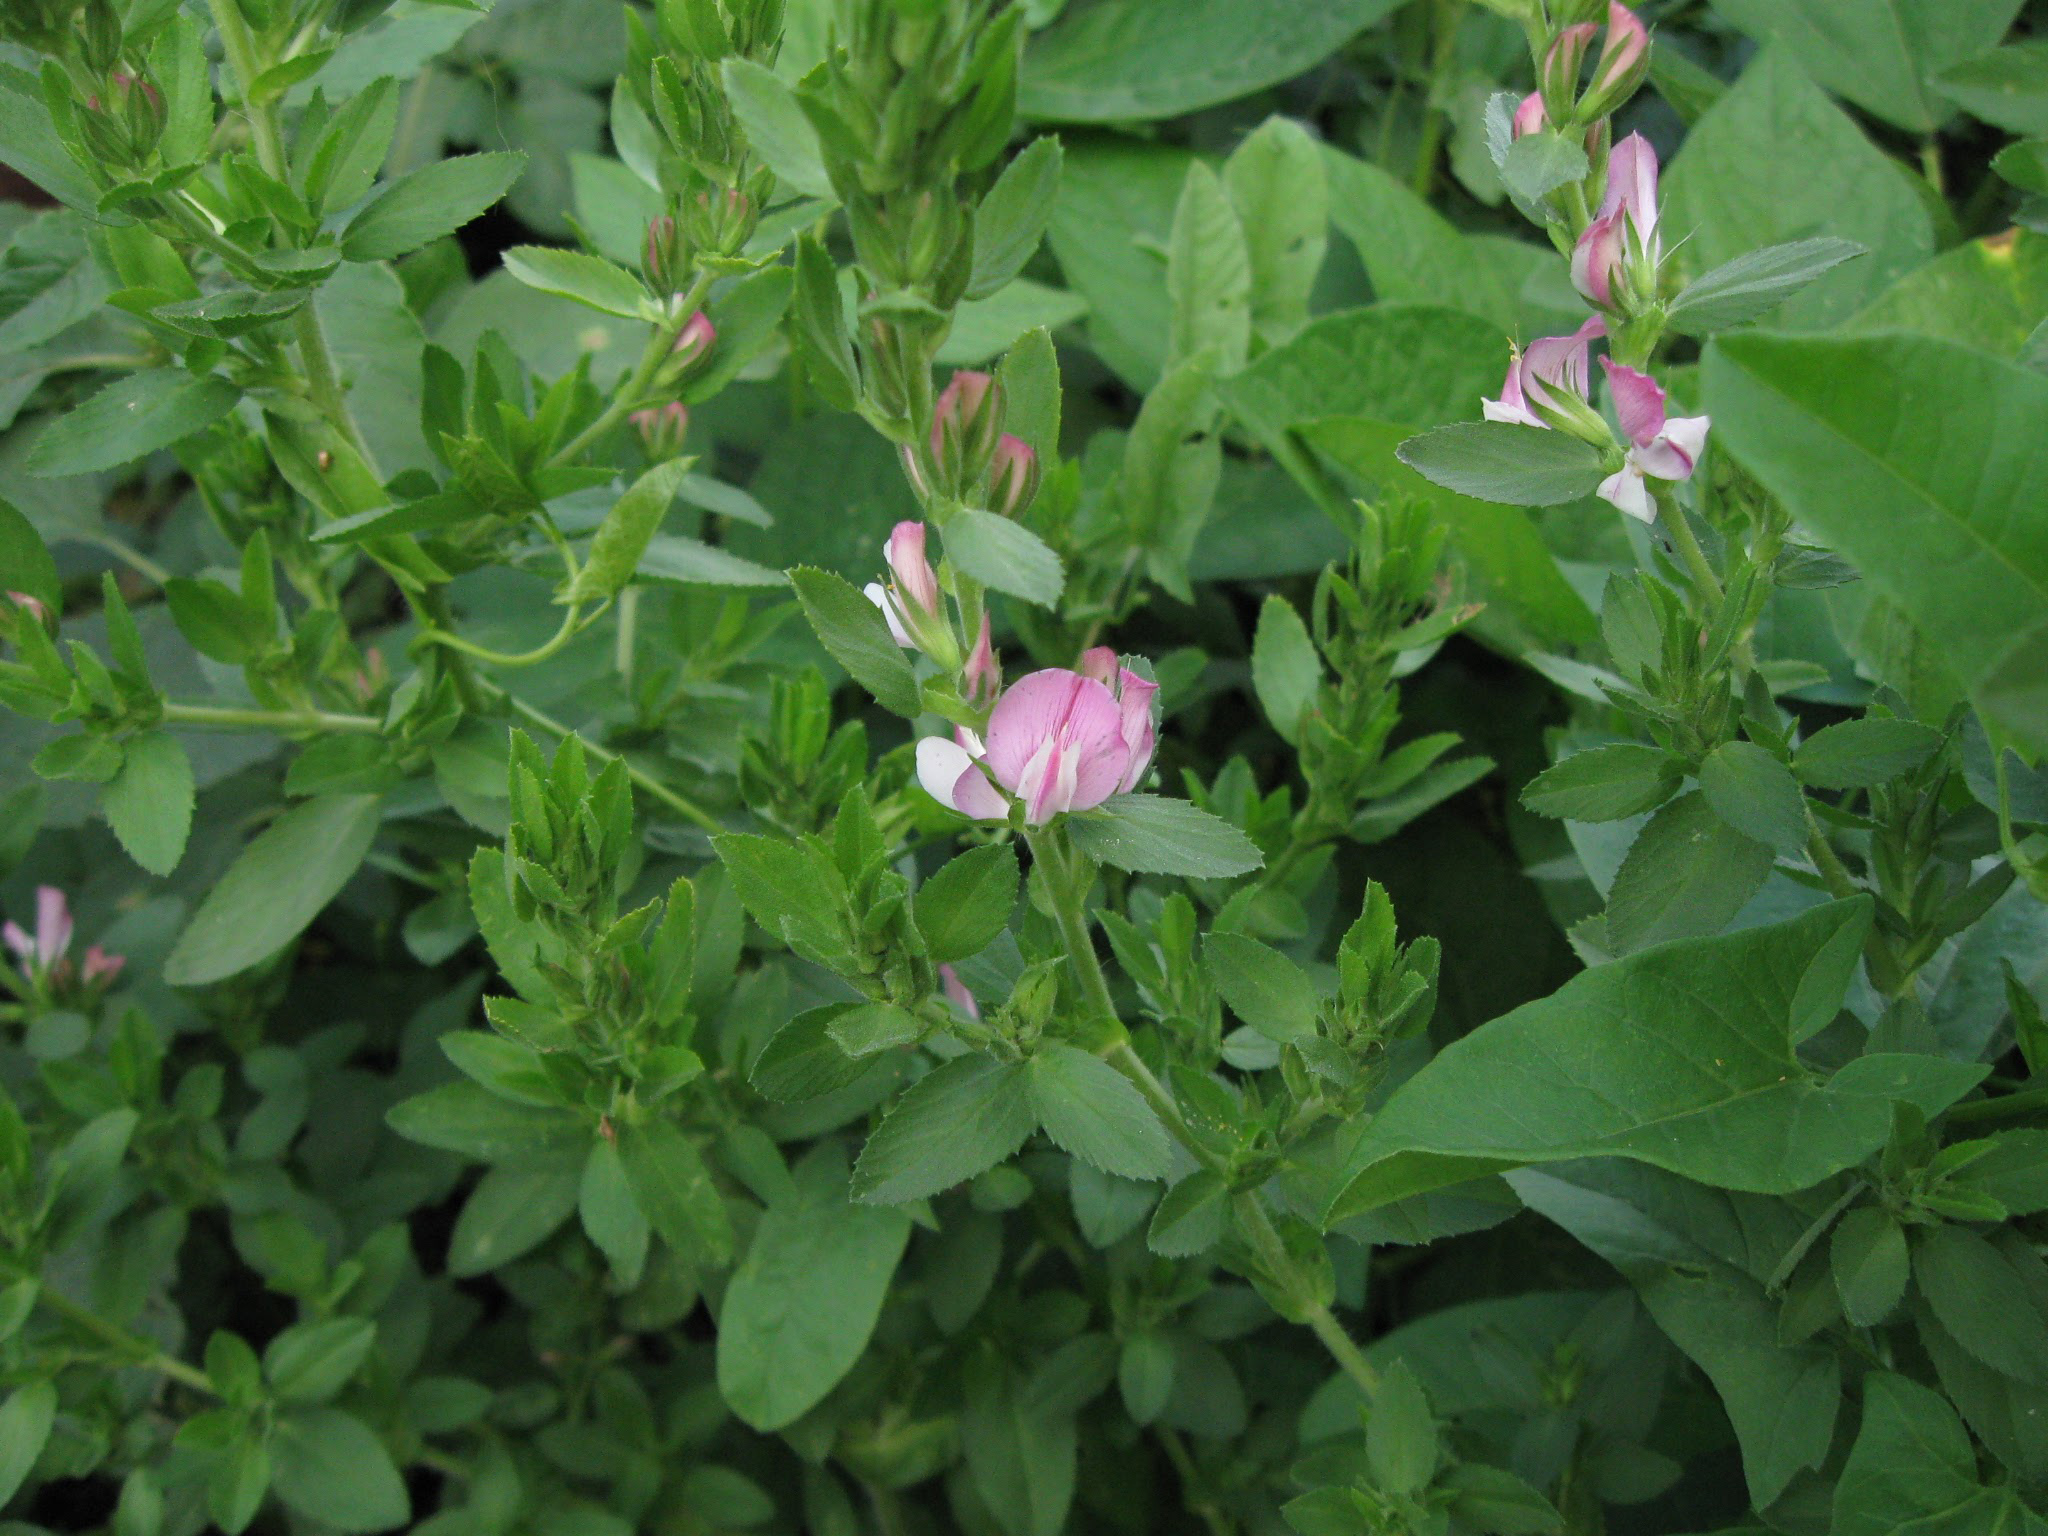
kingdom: Plantae
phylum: Tracheophyta
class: Magnoliopsida
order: Fabales
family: Fabaceae
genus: Ononis
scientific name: Ononis arvensis
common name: Field restharrow
